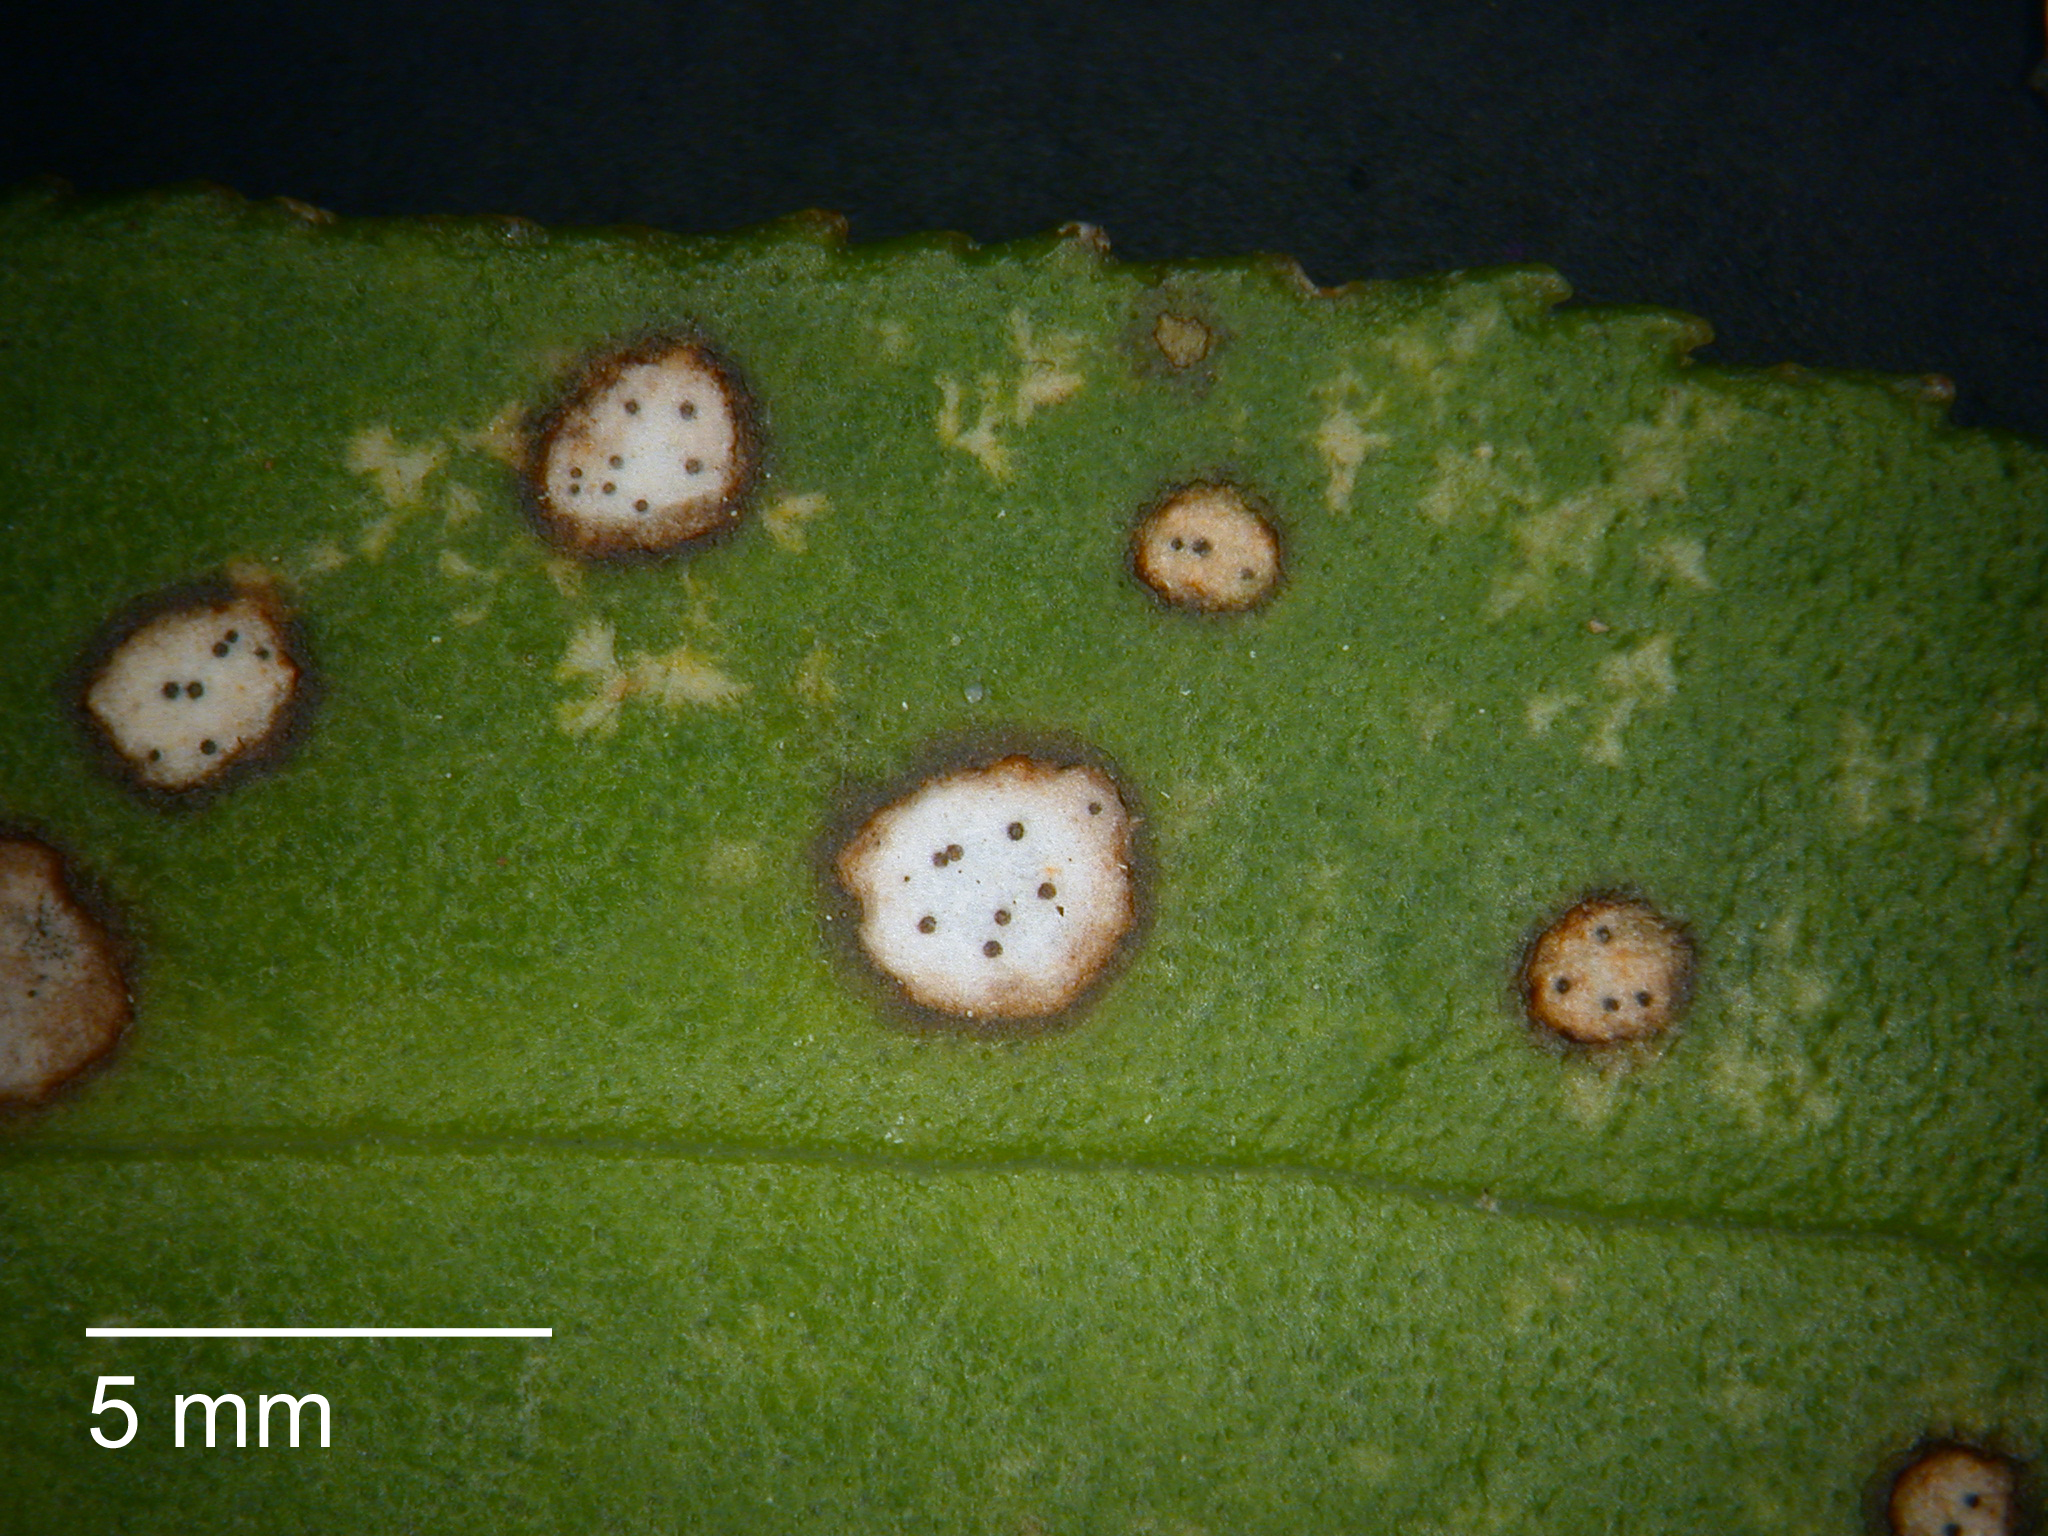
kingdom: Fungi
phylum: Ascomycota
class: Dothideomycetes
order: Mycosphaerellales
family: Mycosphaerellaceae
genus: Septoria
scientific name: Septoria colensoi
